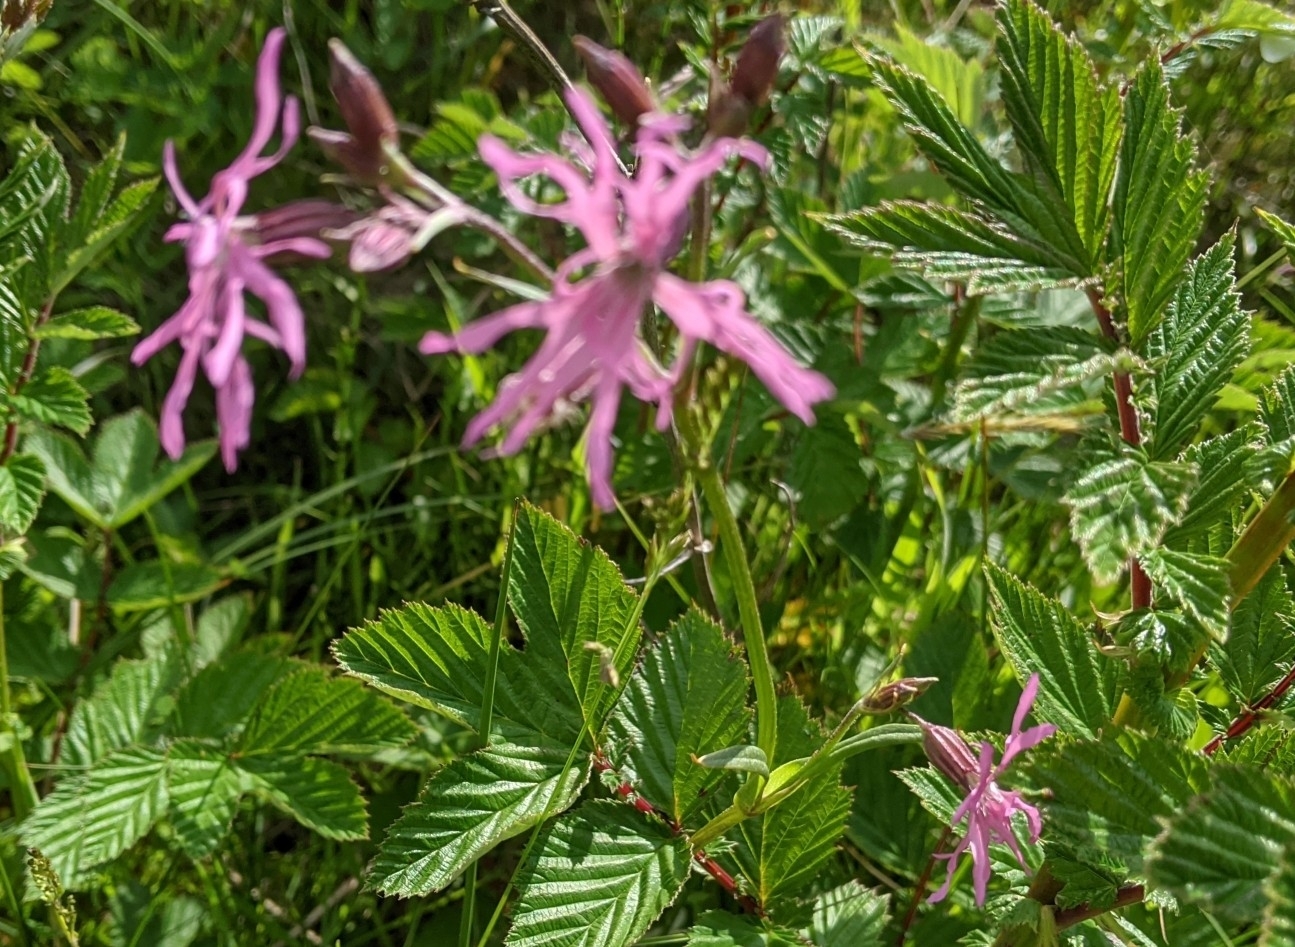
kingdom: Plantae
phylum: Tracheophyta
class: Magnoliopsida
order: Caryophyllales
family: Caryophyllaceae
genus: Silene
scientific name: Silene flos-cuculi
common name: Ragged-robin
